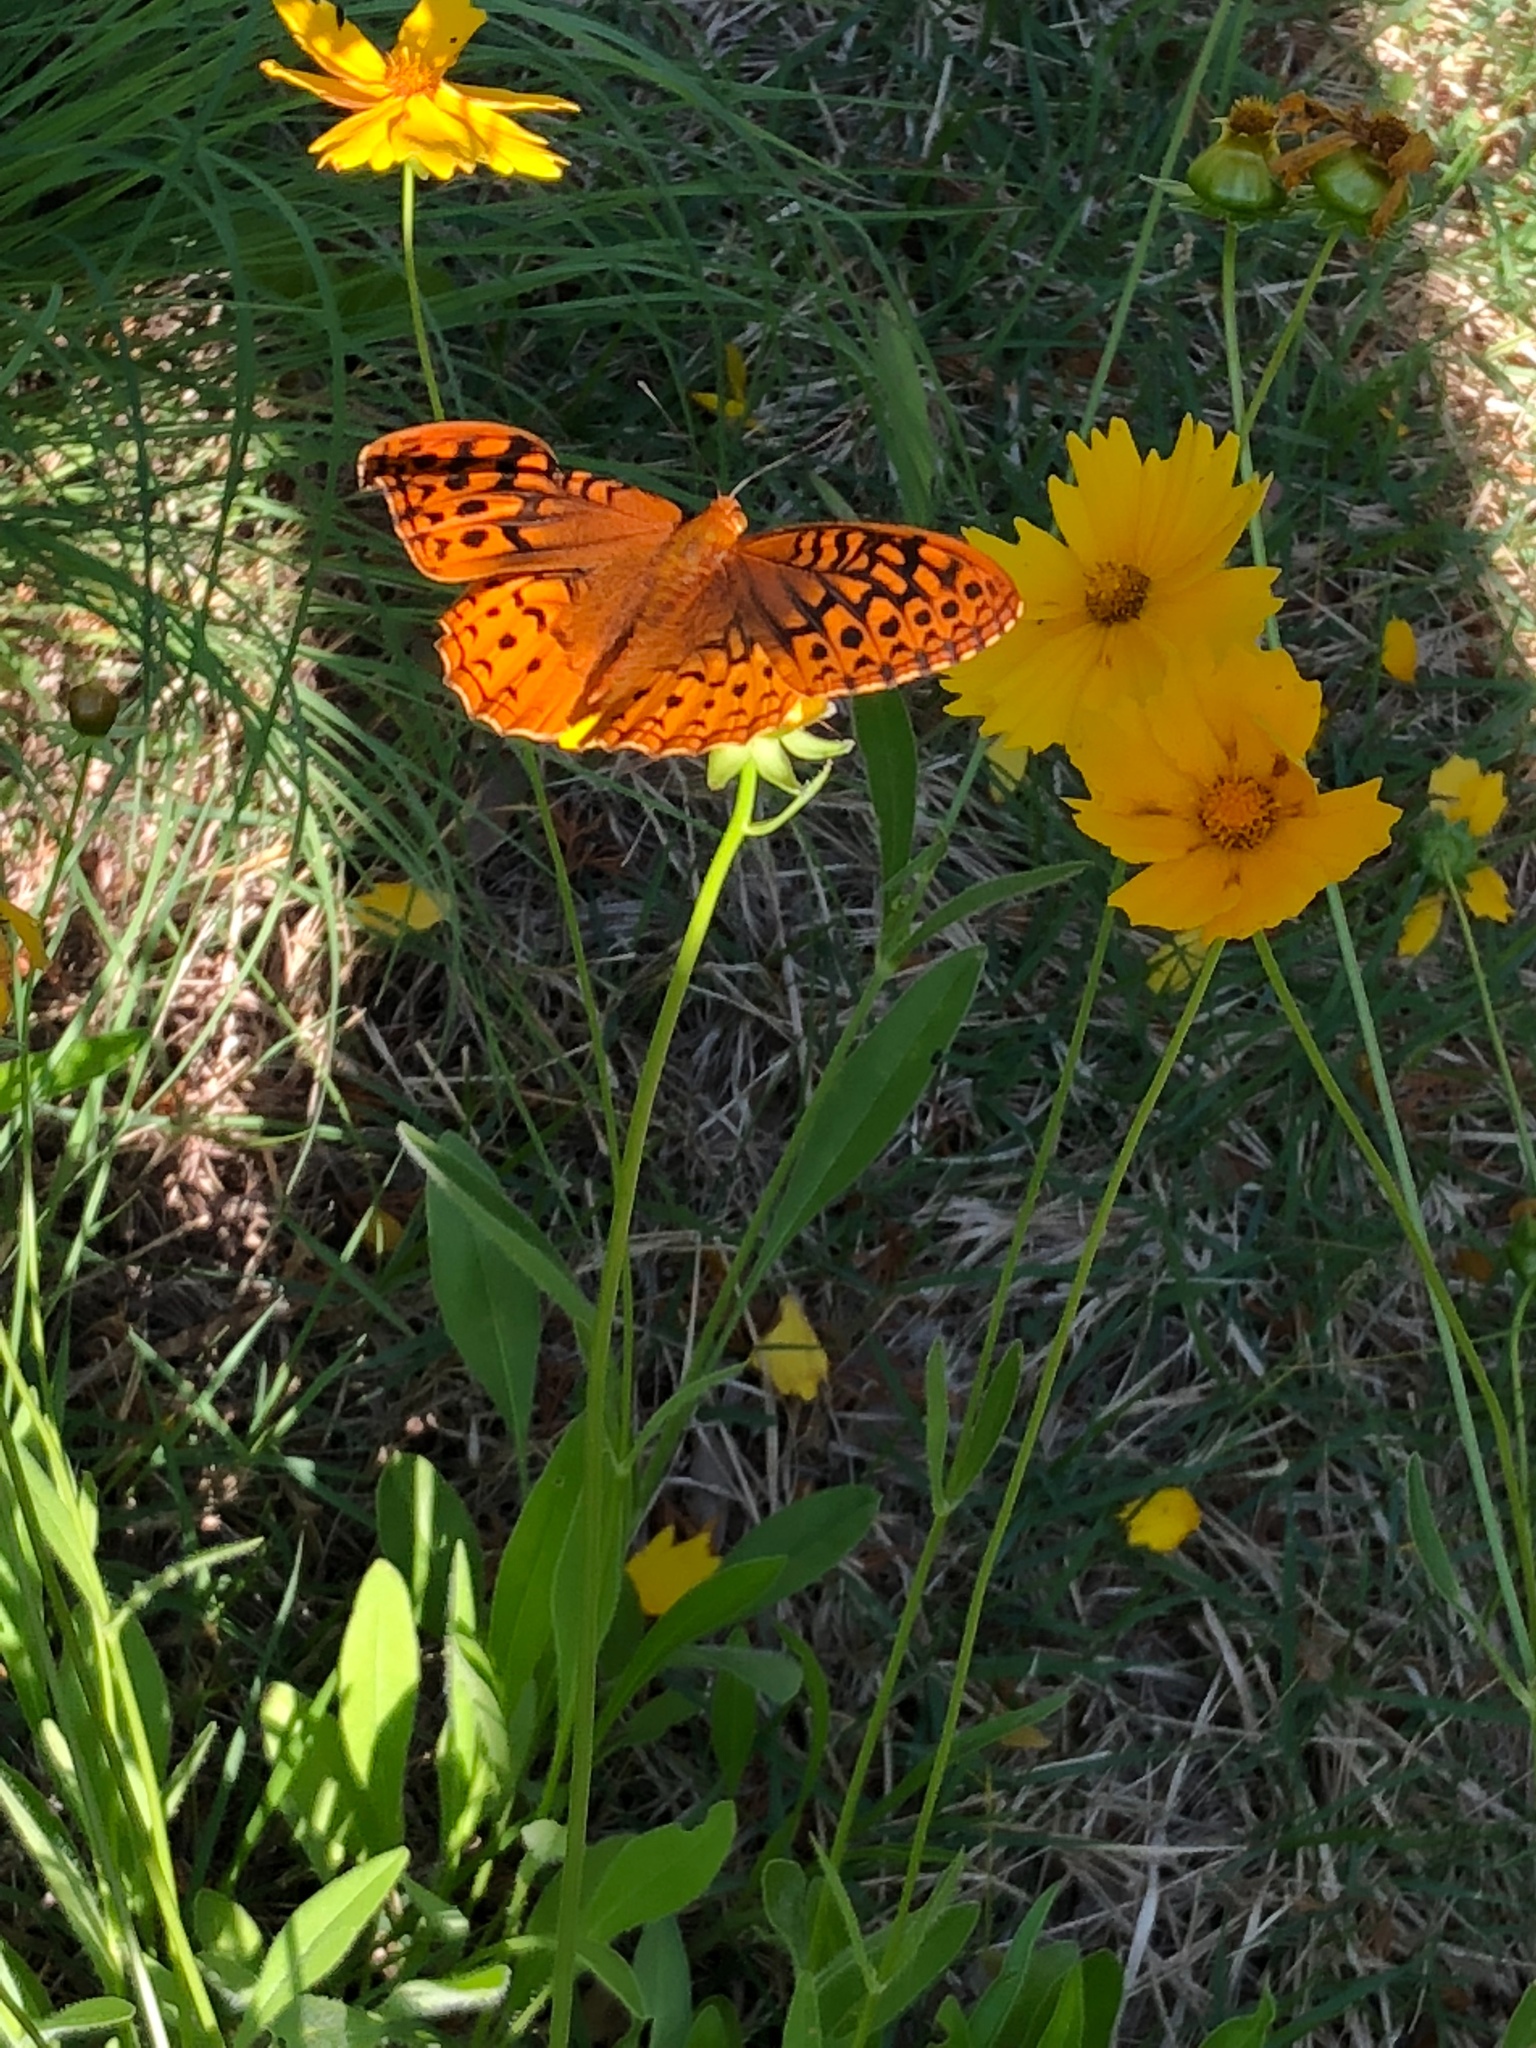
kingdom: Animalia
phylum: Arthropoda
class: Insecta
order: Lepidoptera
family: Nymphalidae
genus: Speyeria
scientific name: Speyeria cybele
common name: Great spangled fritillary
